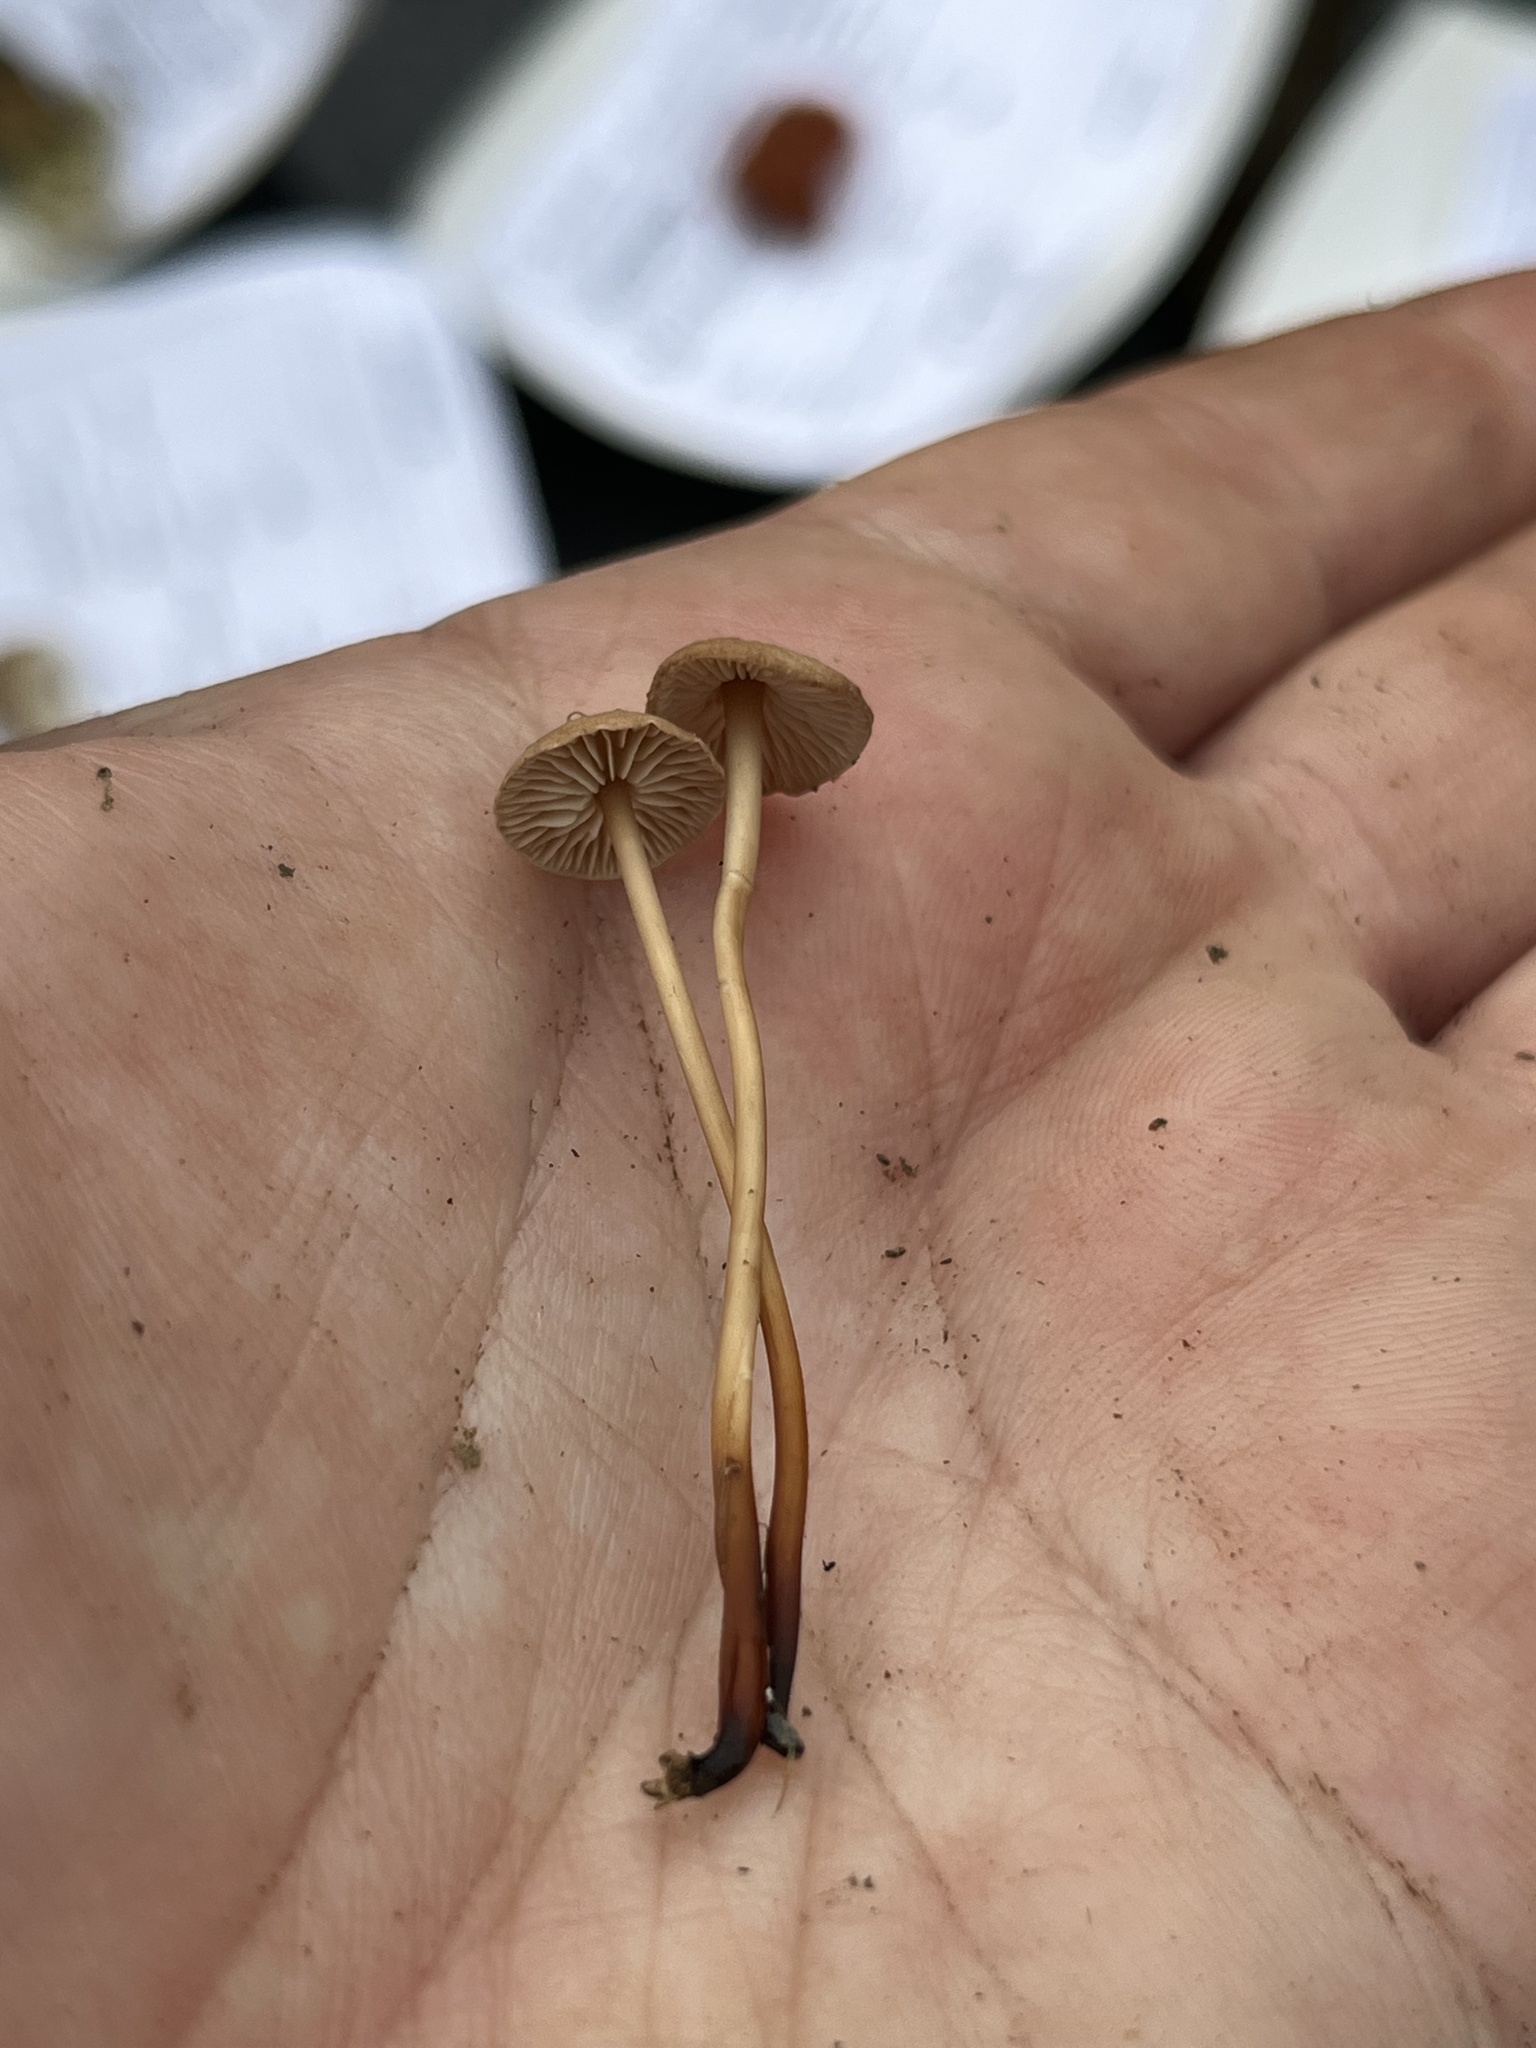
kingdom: Fungi
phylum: Basidiomycota
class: Agaricomycetes
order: Agaricales
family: Omphalotaceae
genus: Mycetinis
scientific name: Mycetinis scorodonius
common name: Vampires bane
